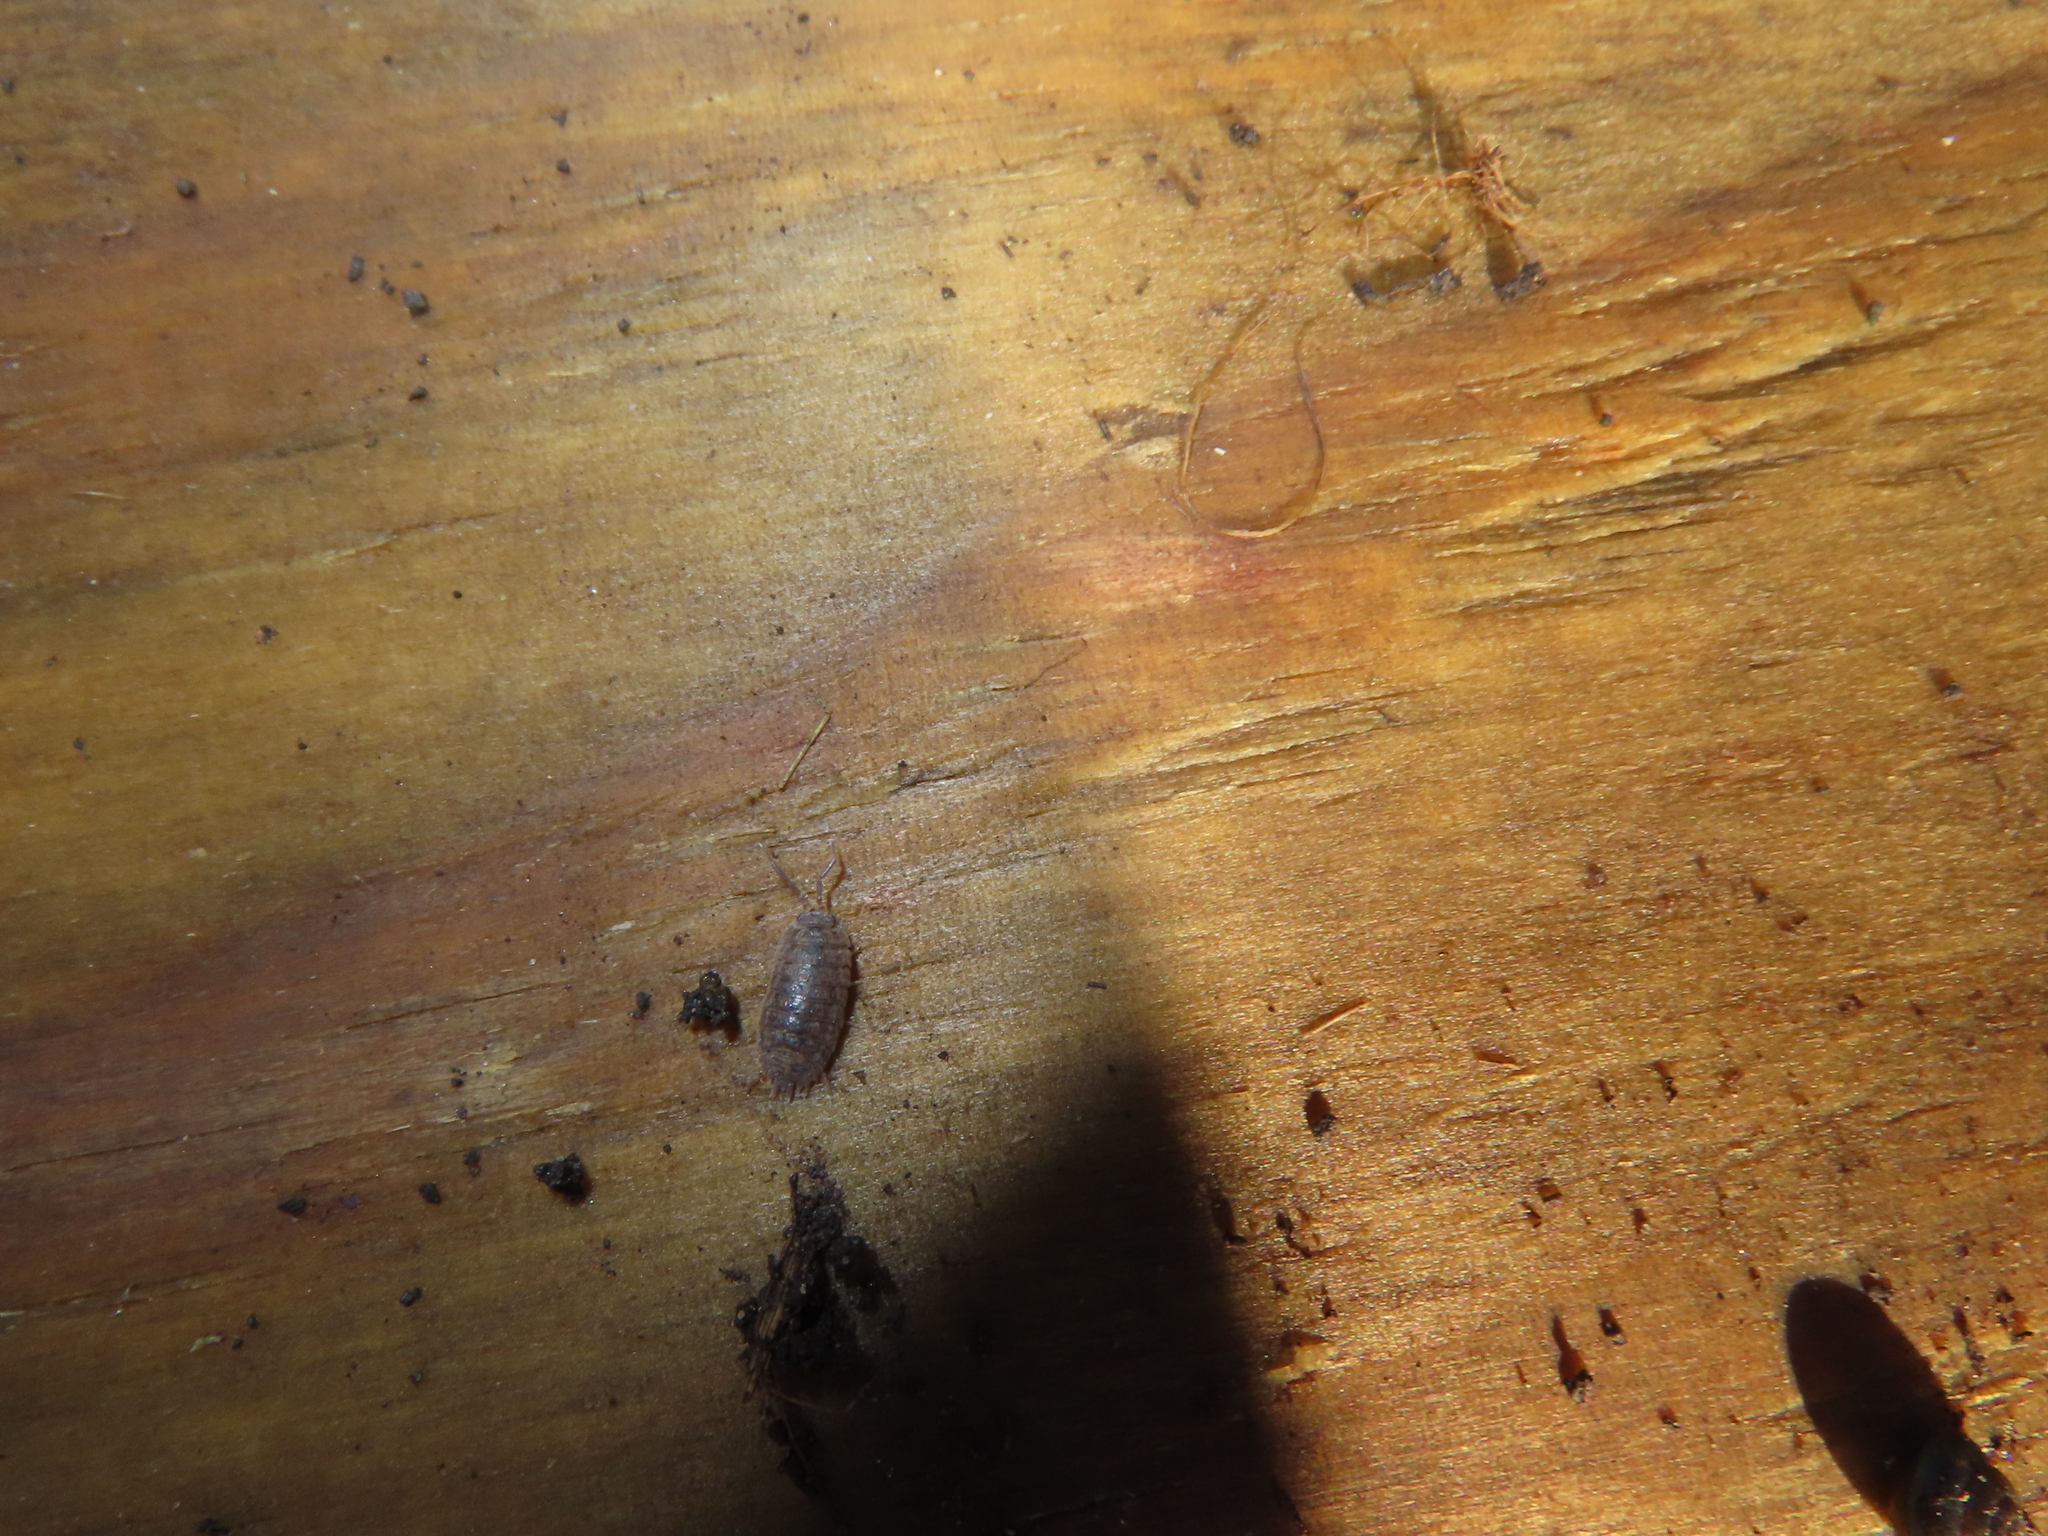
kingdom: Animalia
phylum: Arthropoda
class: Malacostraca
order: Isopoda
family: Trachelipodidae
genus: Trachelipus
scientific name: Trachelipus rathkii
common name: Isopod
